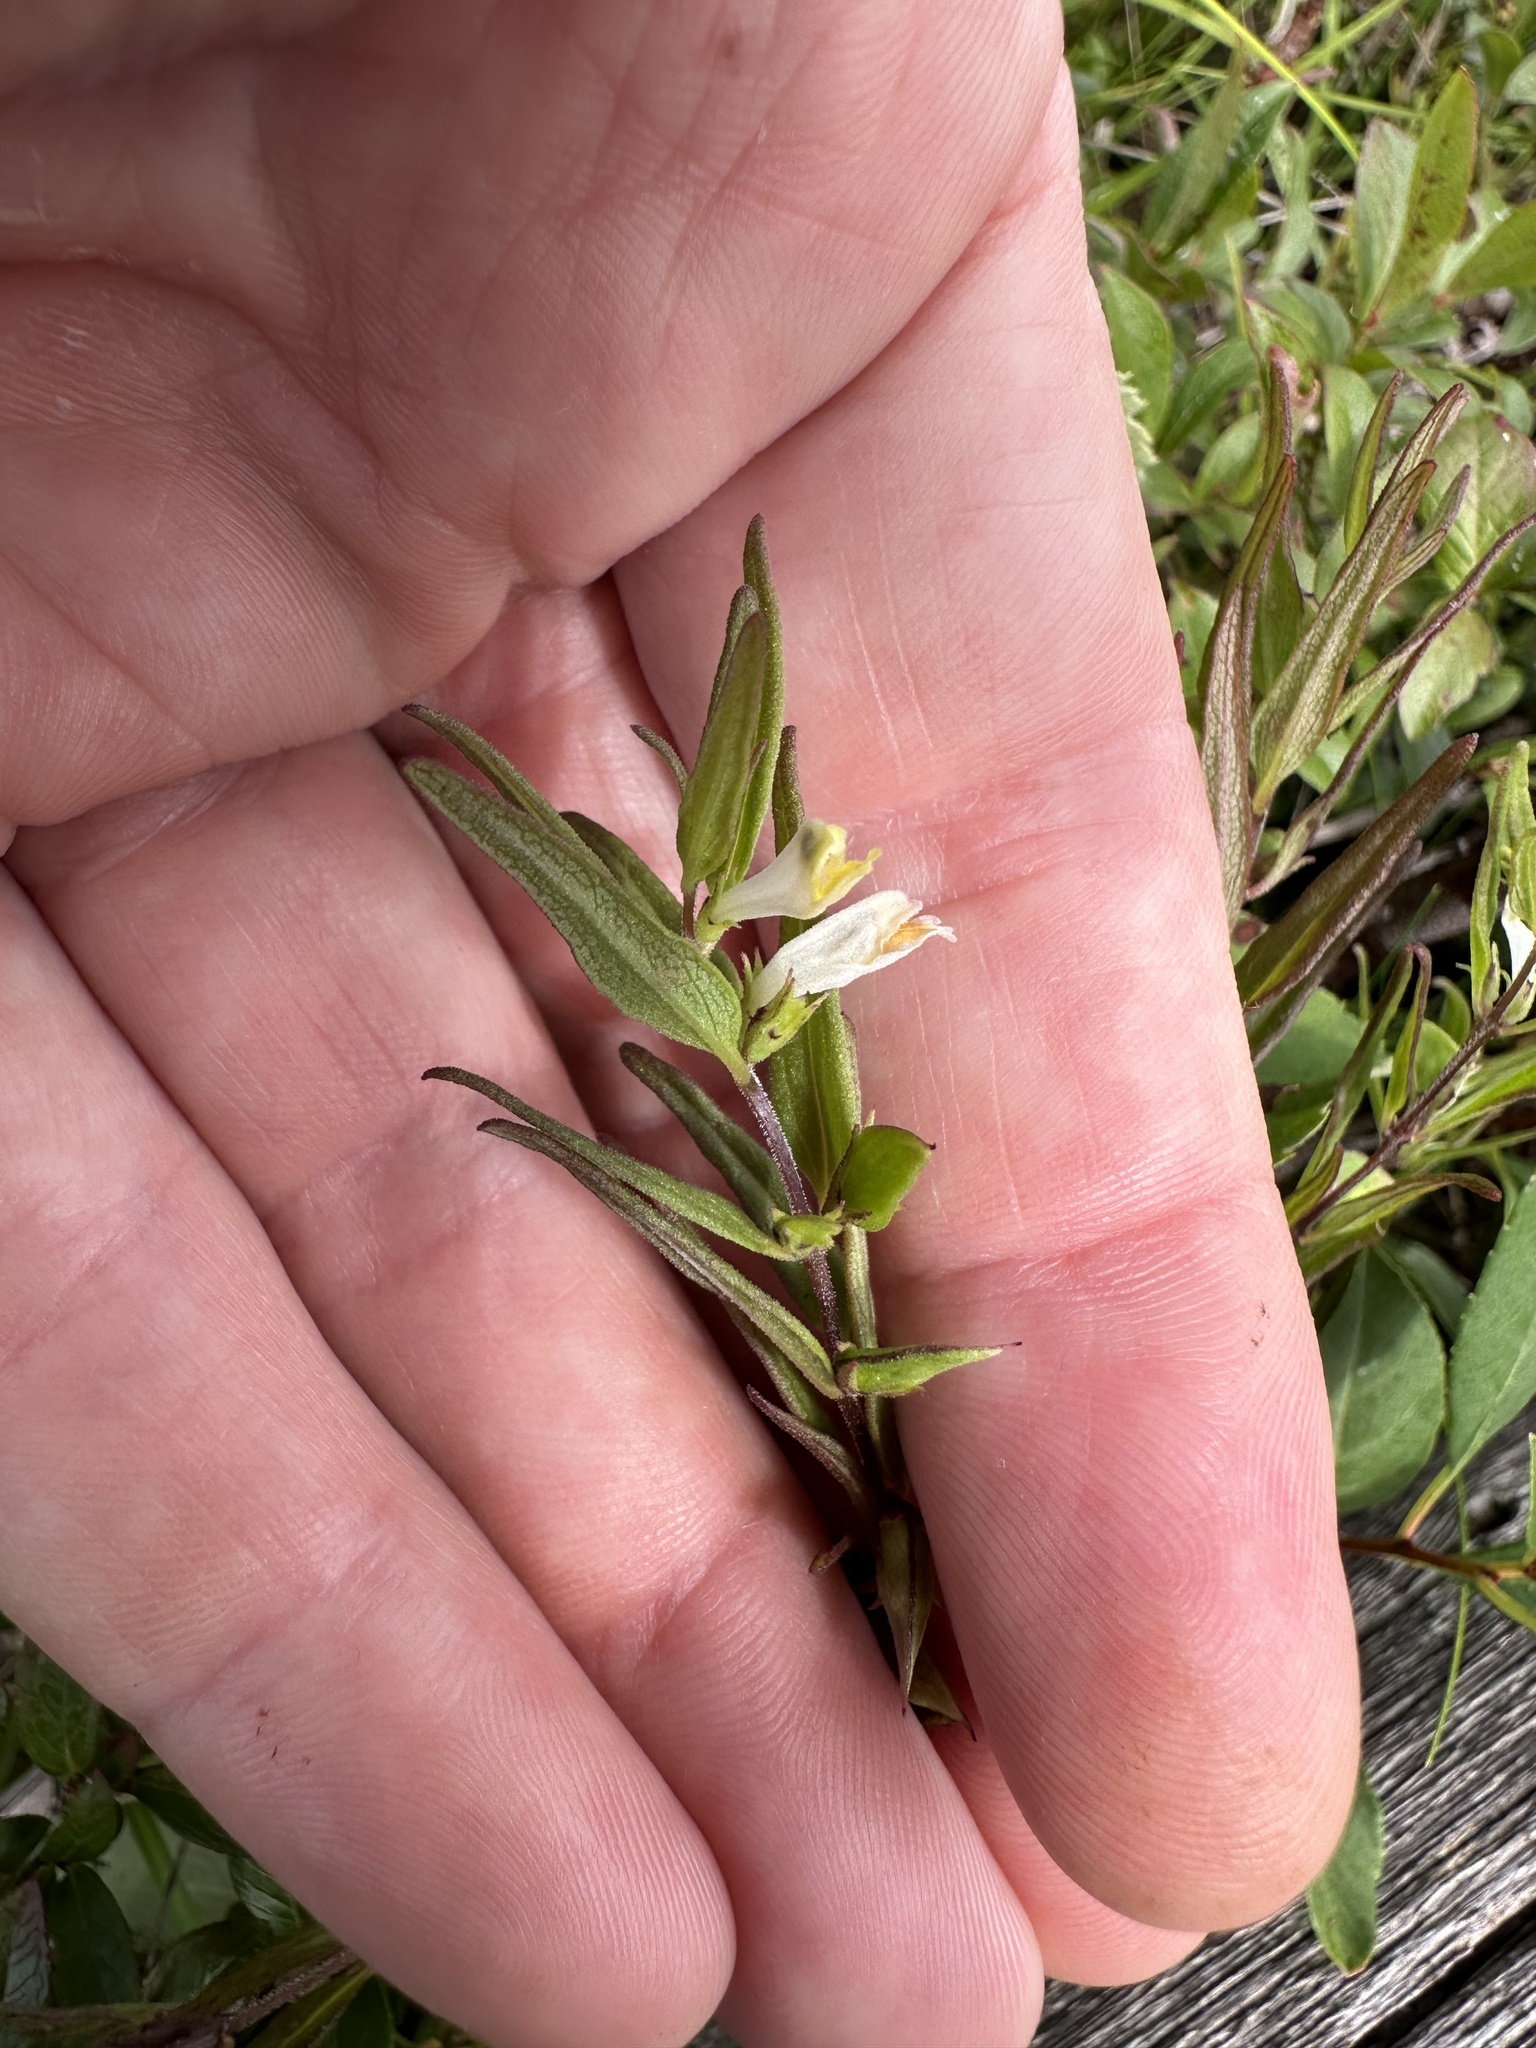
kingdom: Plantae
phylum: Tracheophyta
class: Magnoliopsida
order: Lamiales
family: Orobanchaceae
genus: Melampyrum
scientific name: Melampyrum lineare
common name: American cow-wheat
